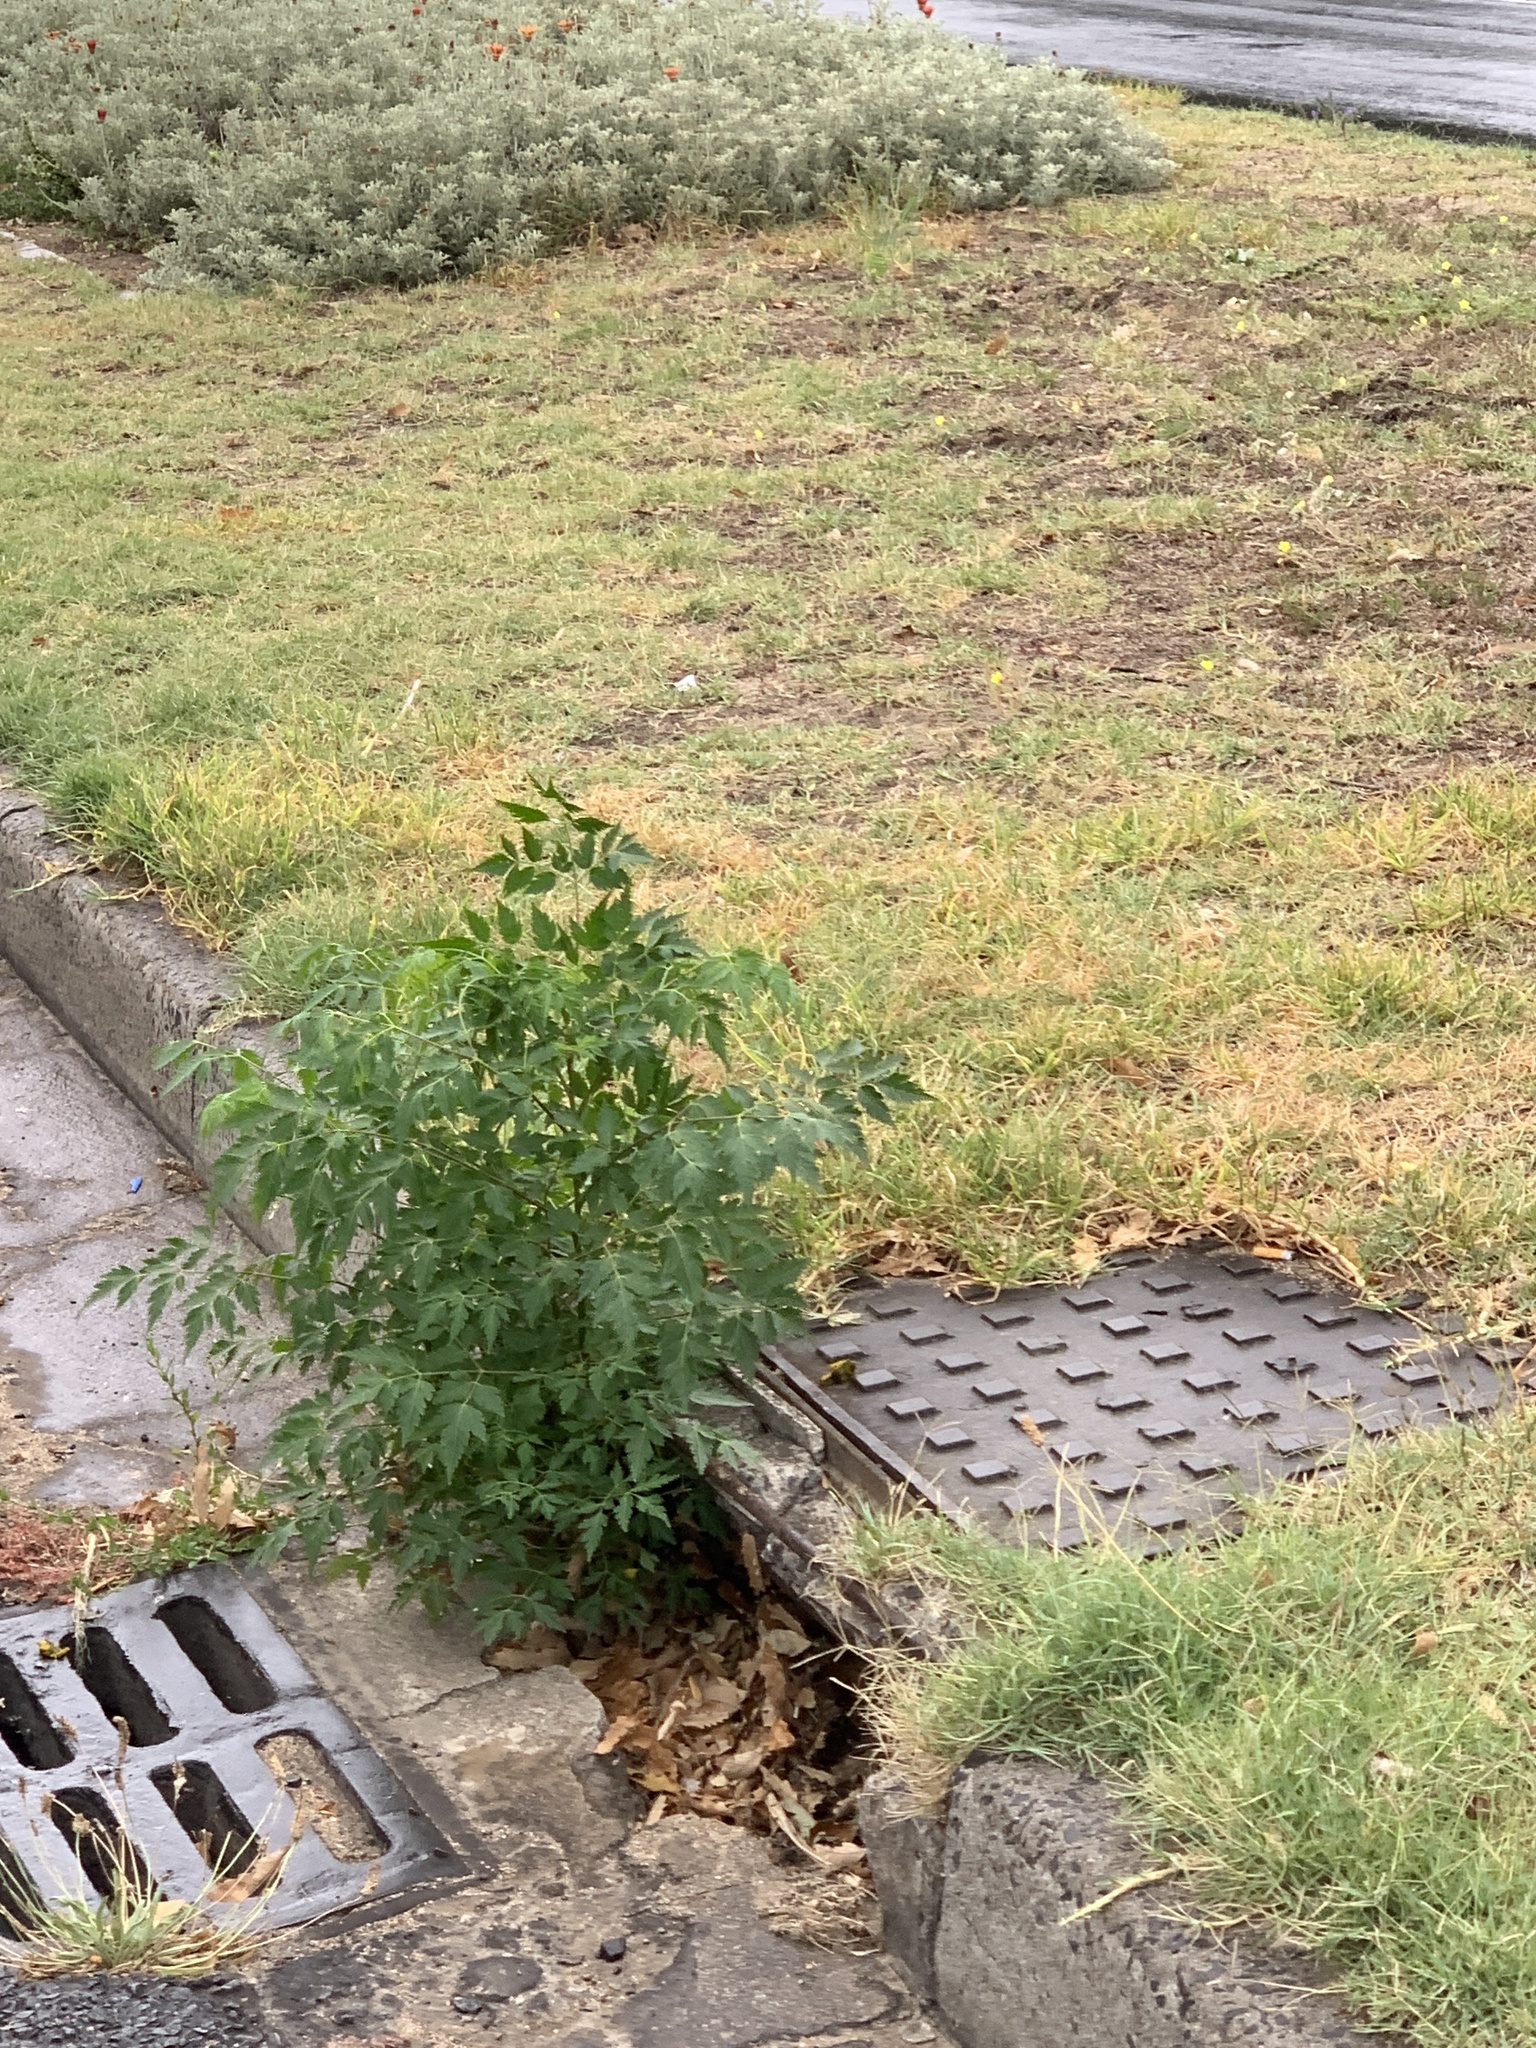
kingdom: Plantae
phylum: Tracheophyta
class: Magnoliopsida
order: Sapindales
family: Meliaceae
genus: Melia
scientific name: Melia azedarach
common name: Chinaberrytree
